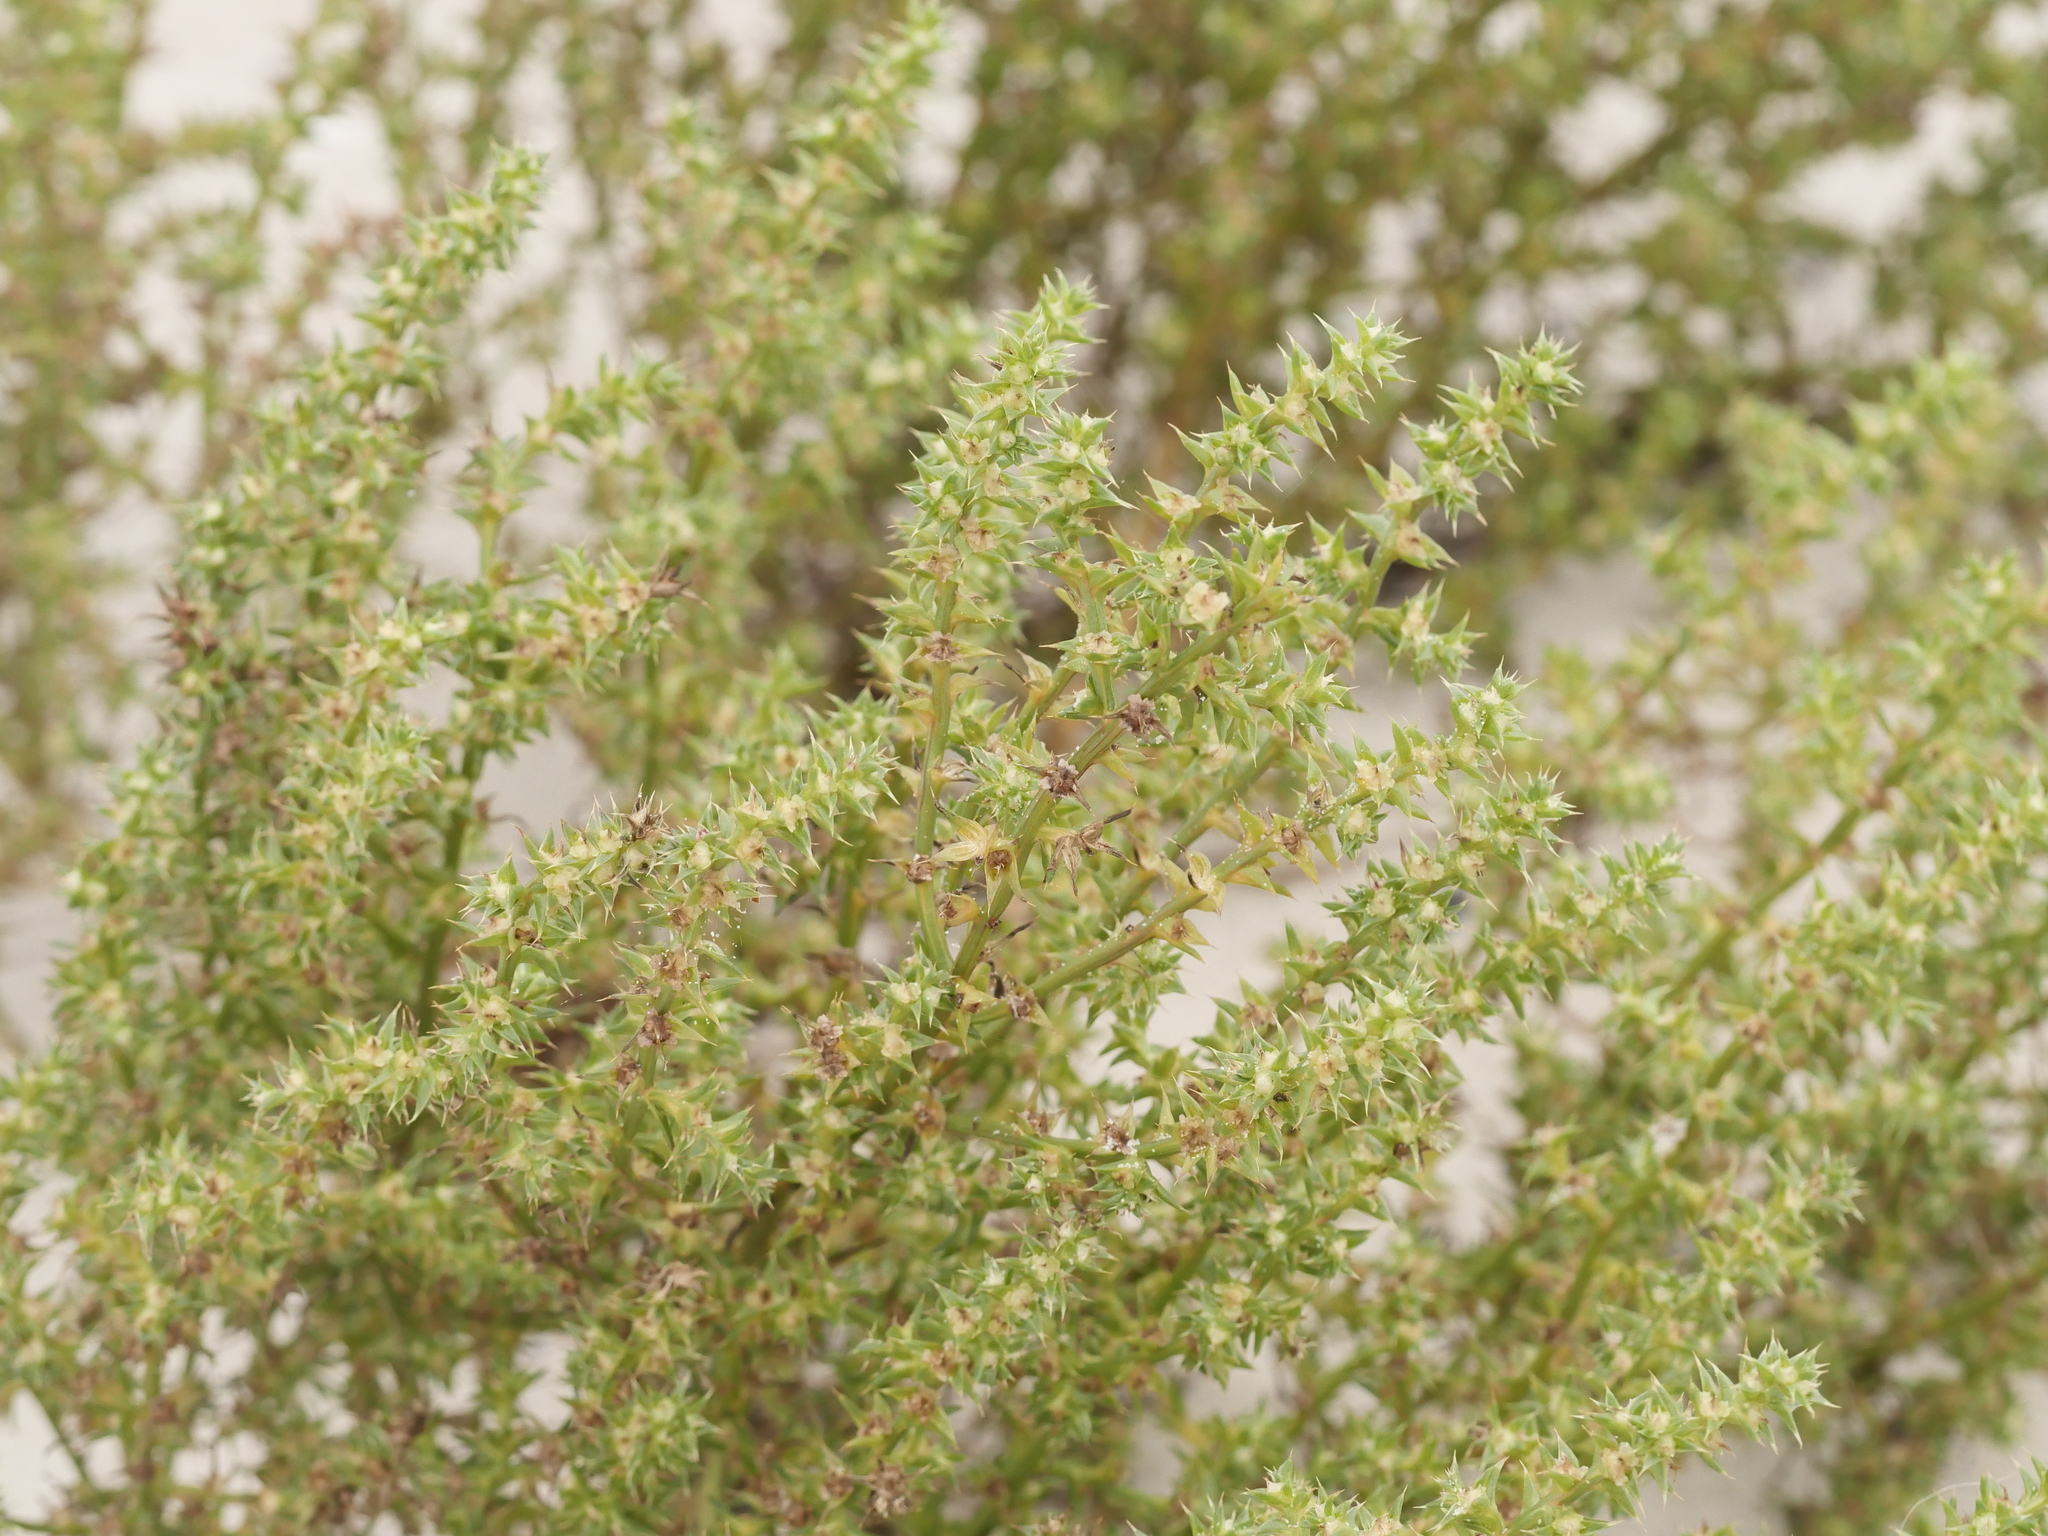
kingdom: Plantae
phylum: Tracheophyta
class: Magnoliopsida
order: Caryophyllales
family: Amaranthaceae
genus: Salsola
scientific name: Salsola kali
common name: Saltwort
